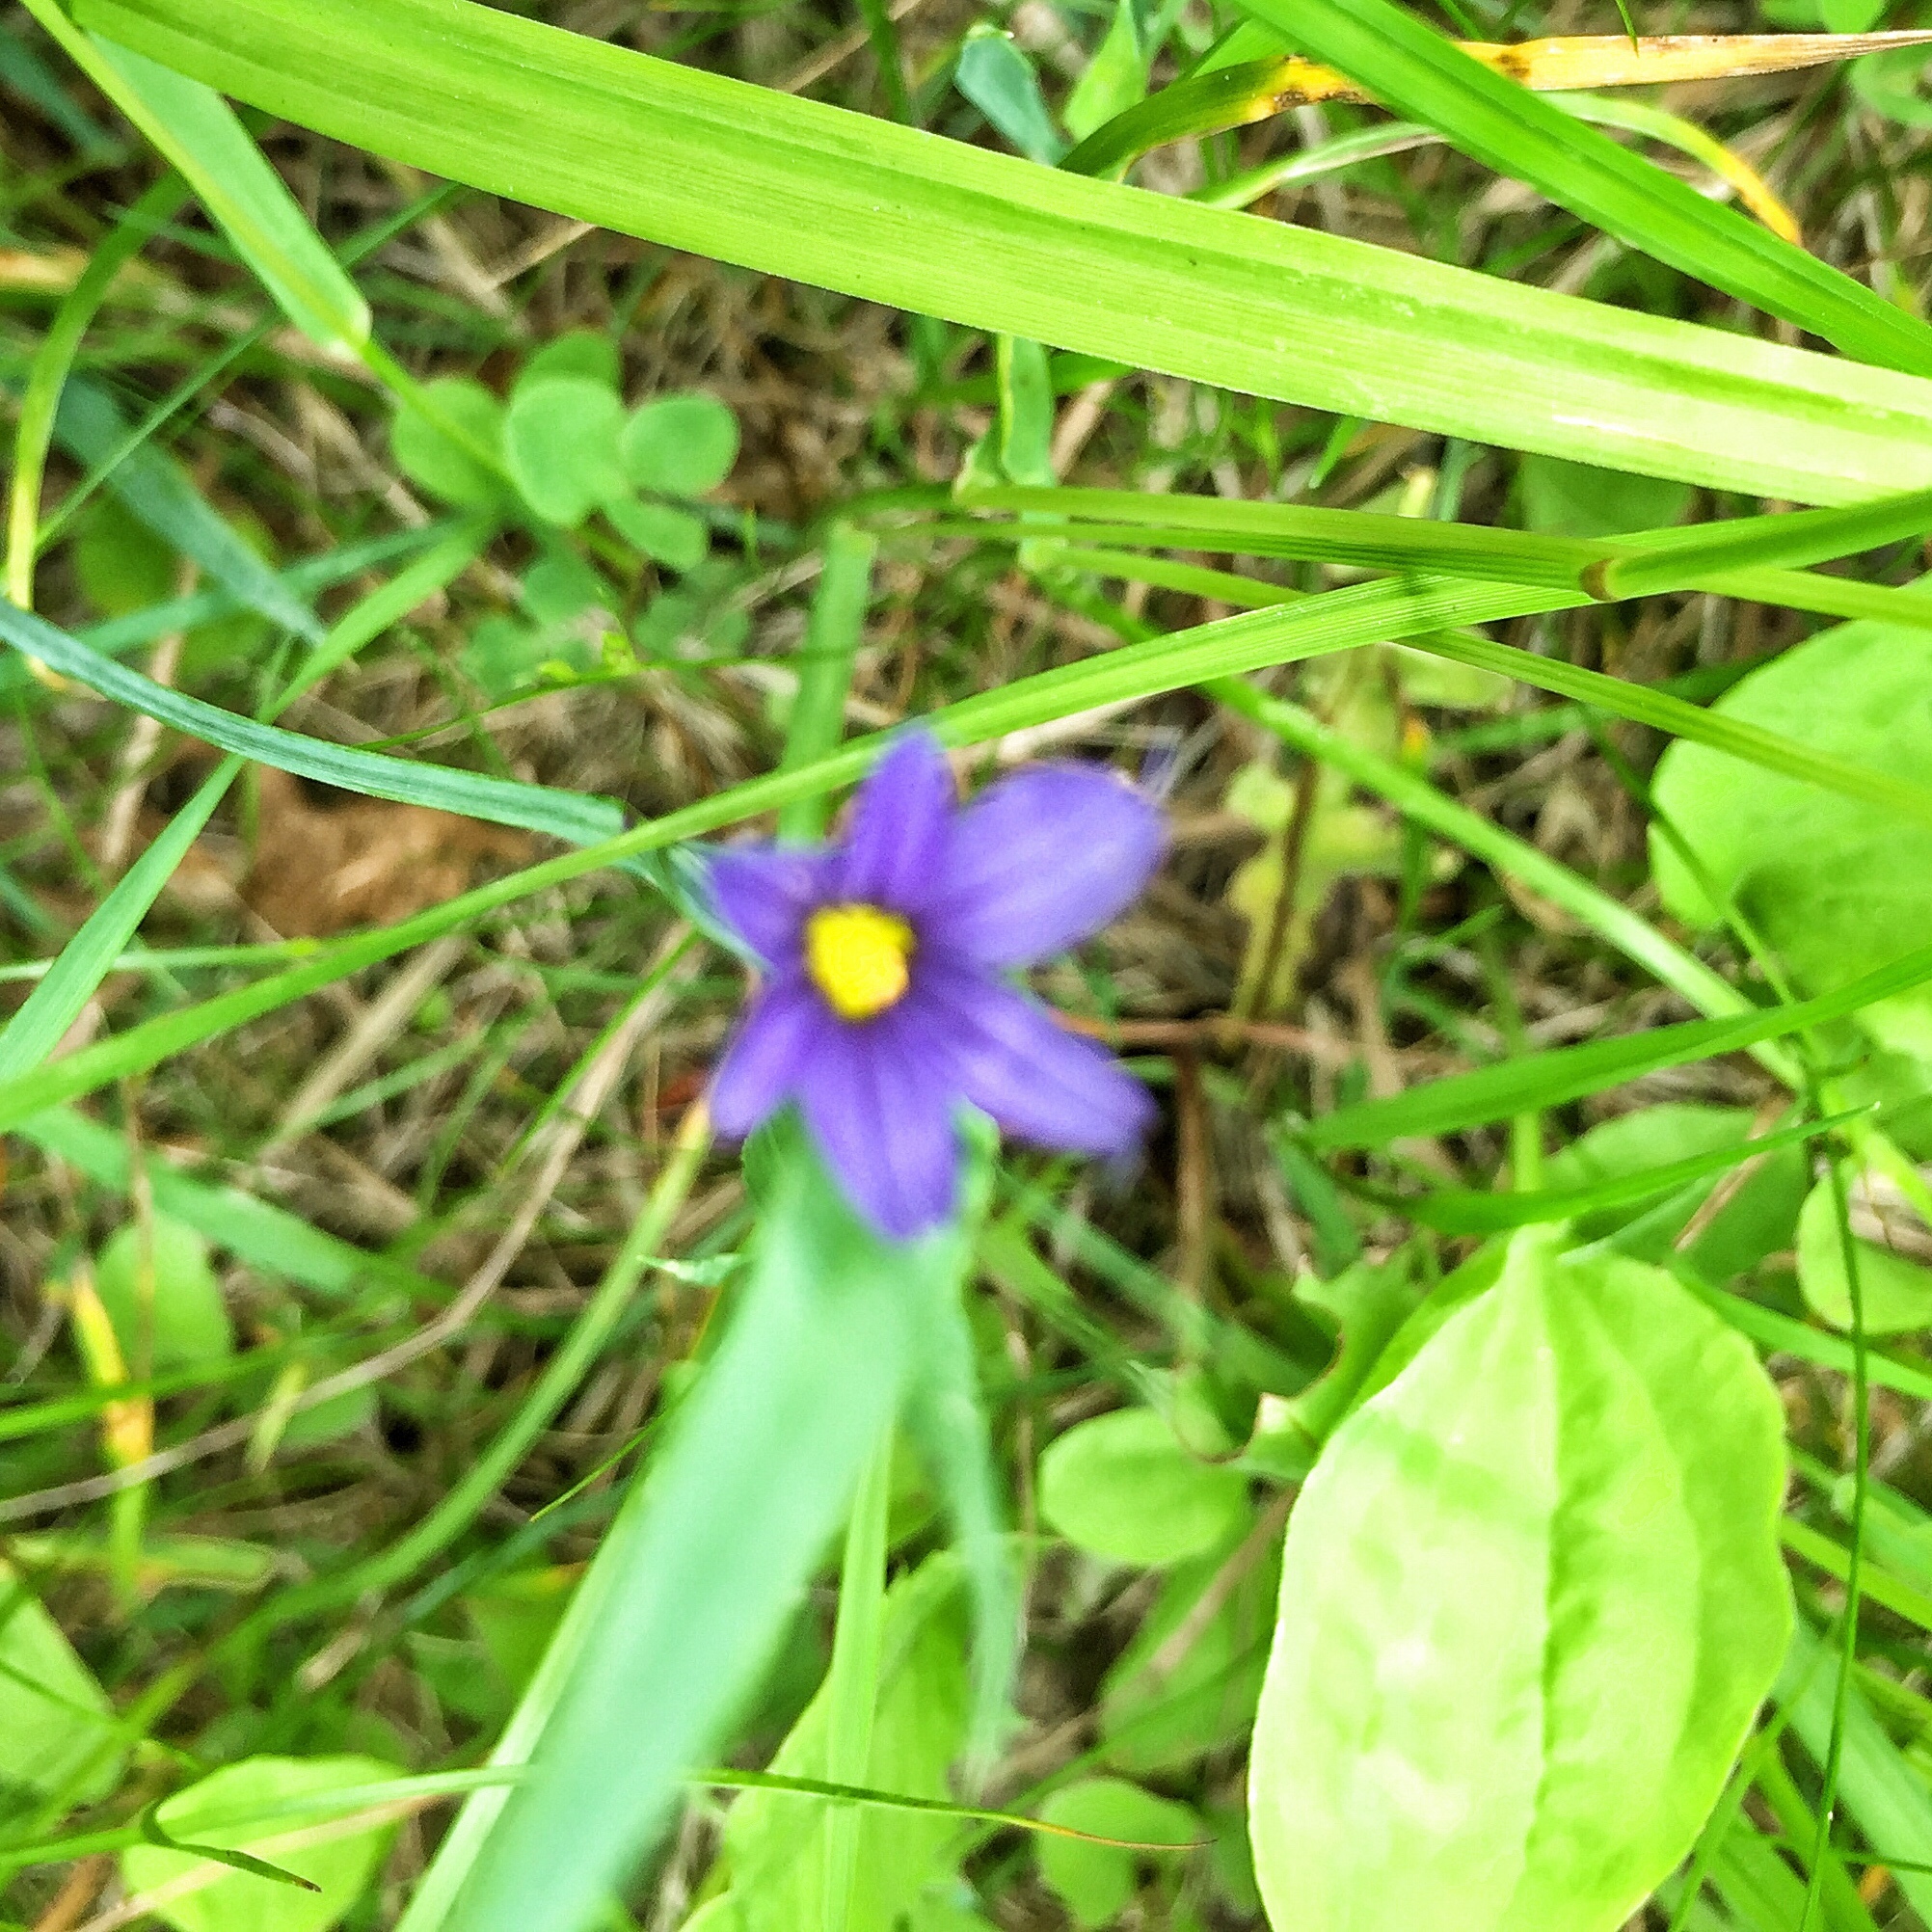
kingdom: Plantae
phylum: Tracheophyta
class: Liliopsida
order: Asparagales
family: Iridaceae
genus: Sisyrinchium
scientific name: Sisyrinchium montanum
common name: American blue-eyed-grass
